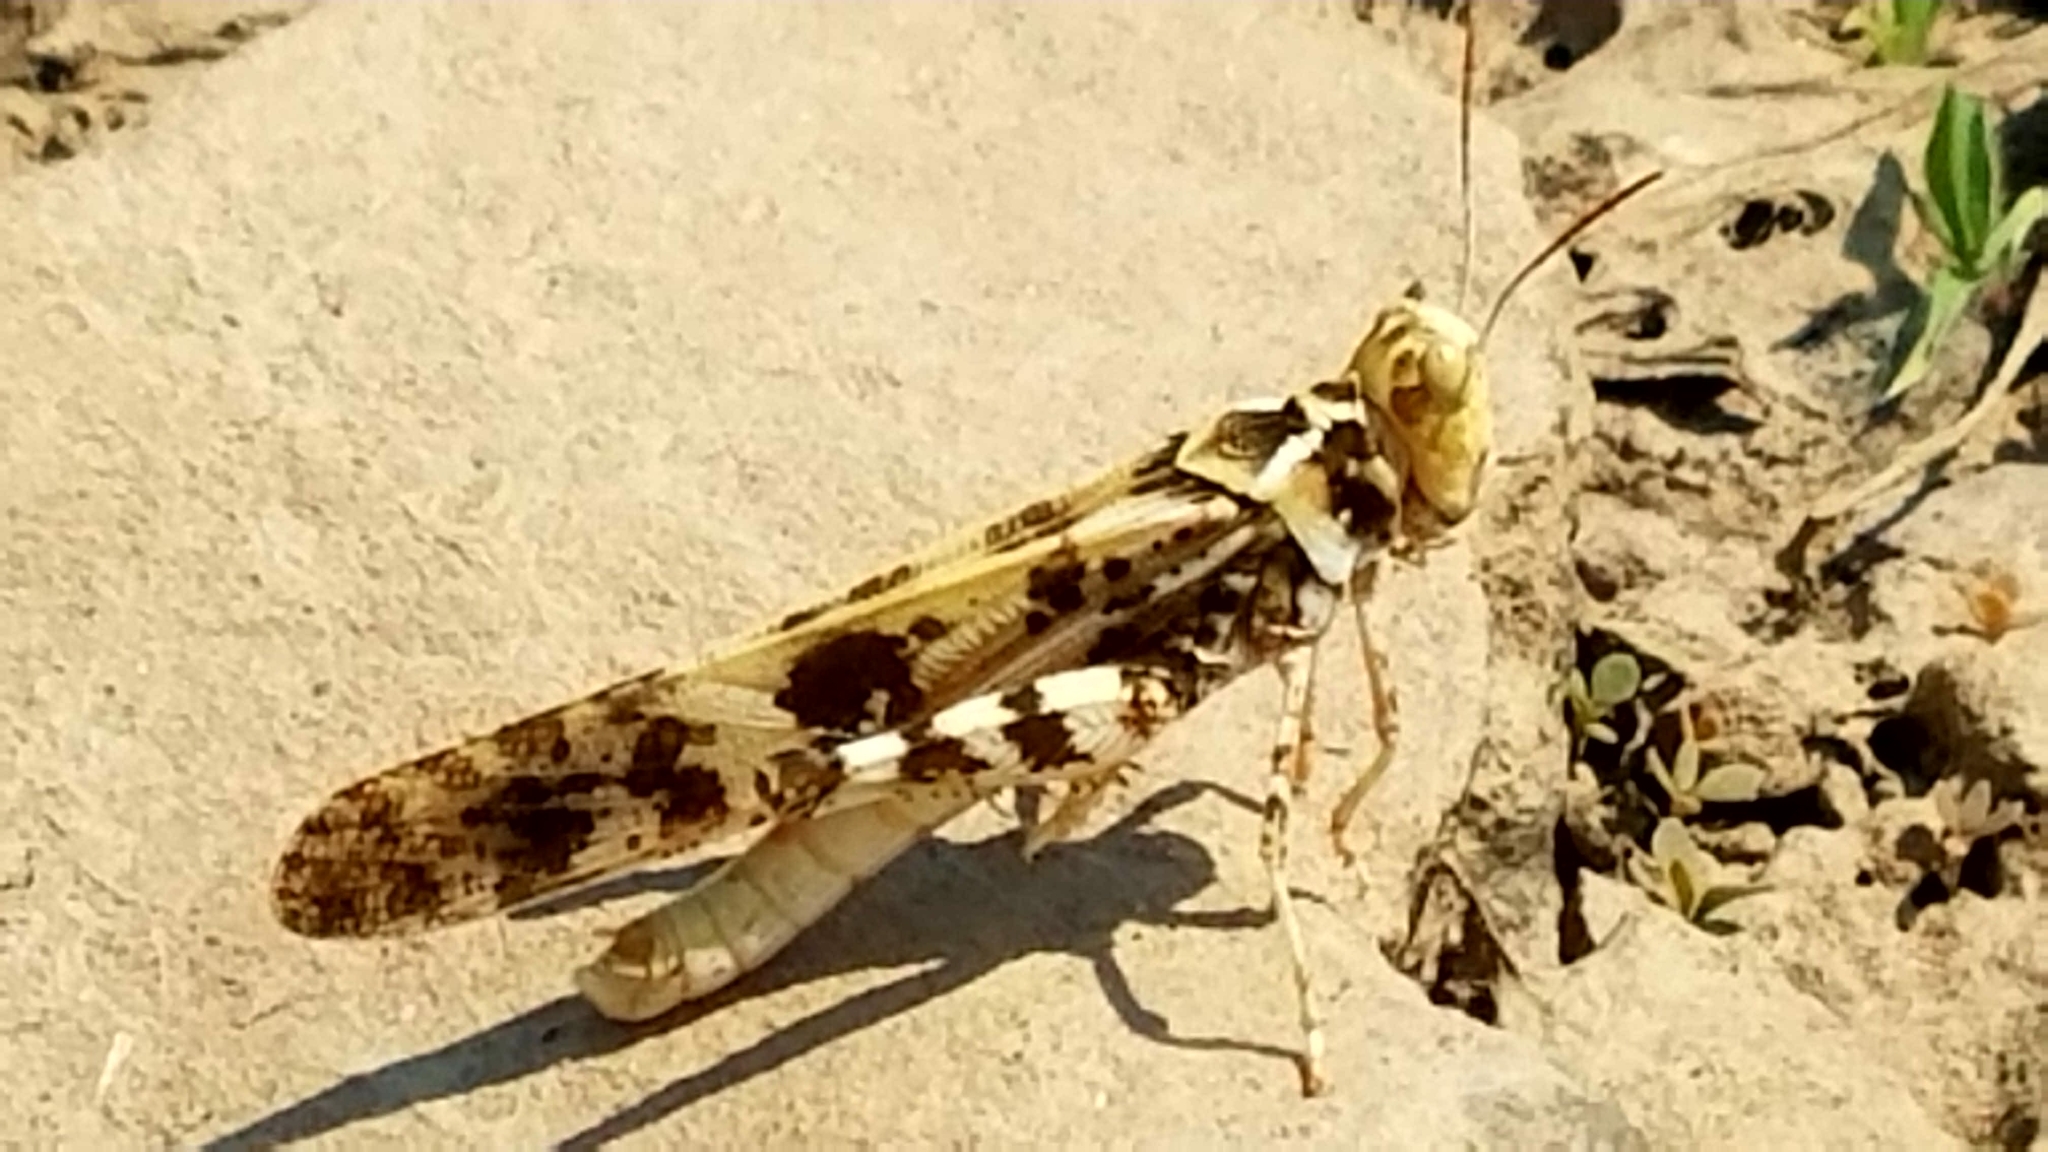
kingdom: Animalia
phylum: Arthropoda
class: Insecta
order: Orthoptera
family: Acrididae
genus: Dissosteira
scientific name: Dissosteira spurcata
